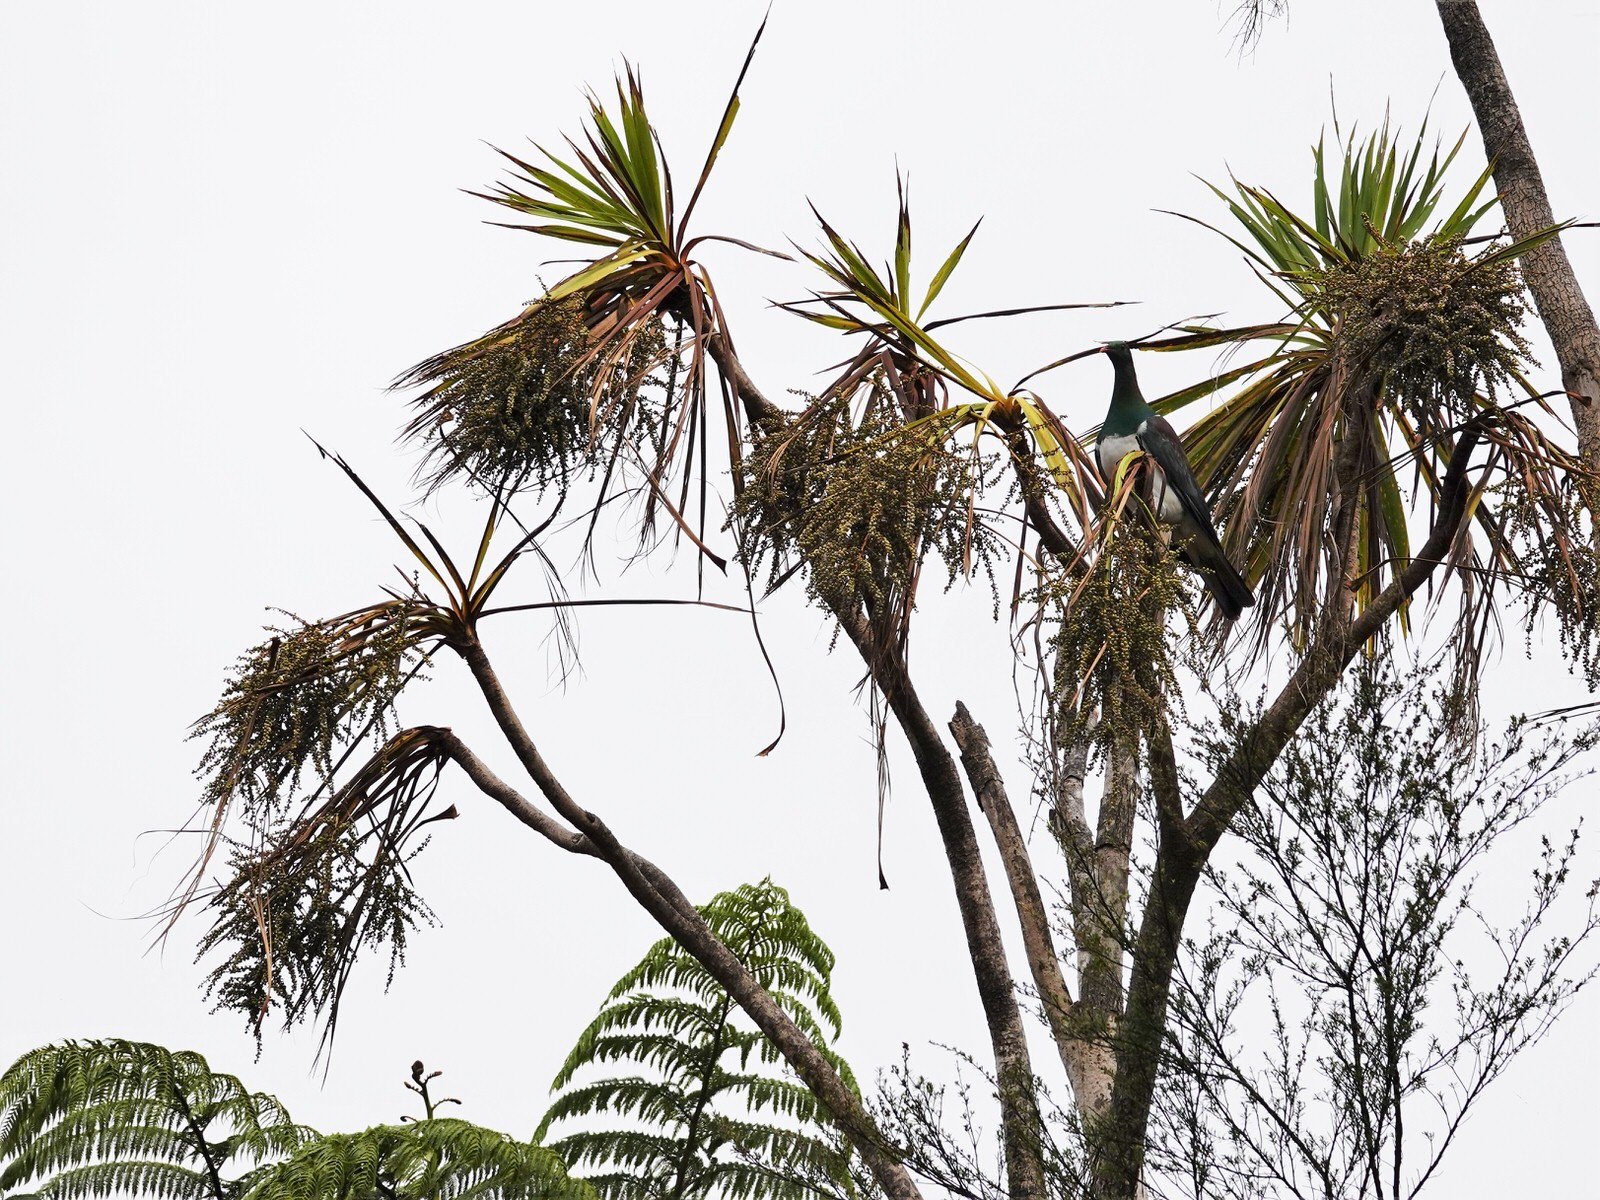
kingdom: Animalia
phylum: Chordata
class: Aves
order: Columbiformes
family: Columbidae
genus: Hemiphaga
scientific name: Hemiphaga novaeseelandiae
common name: New zealand pigeon
